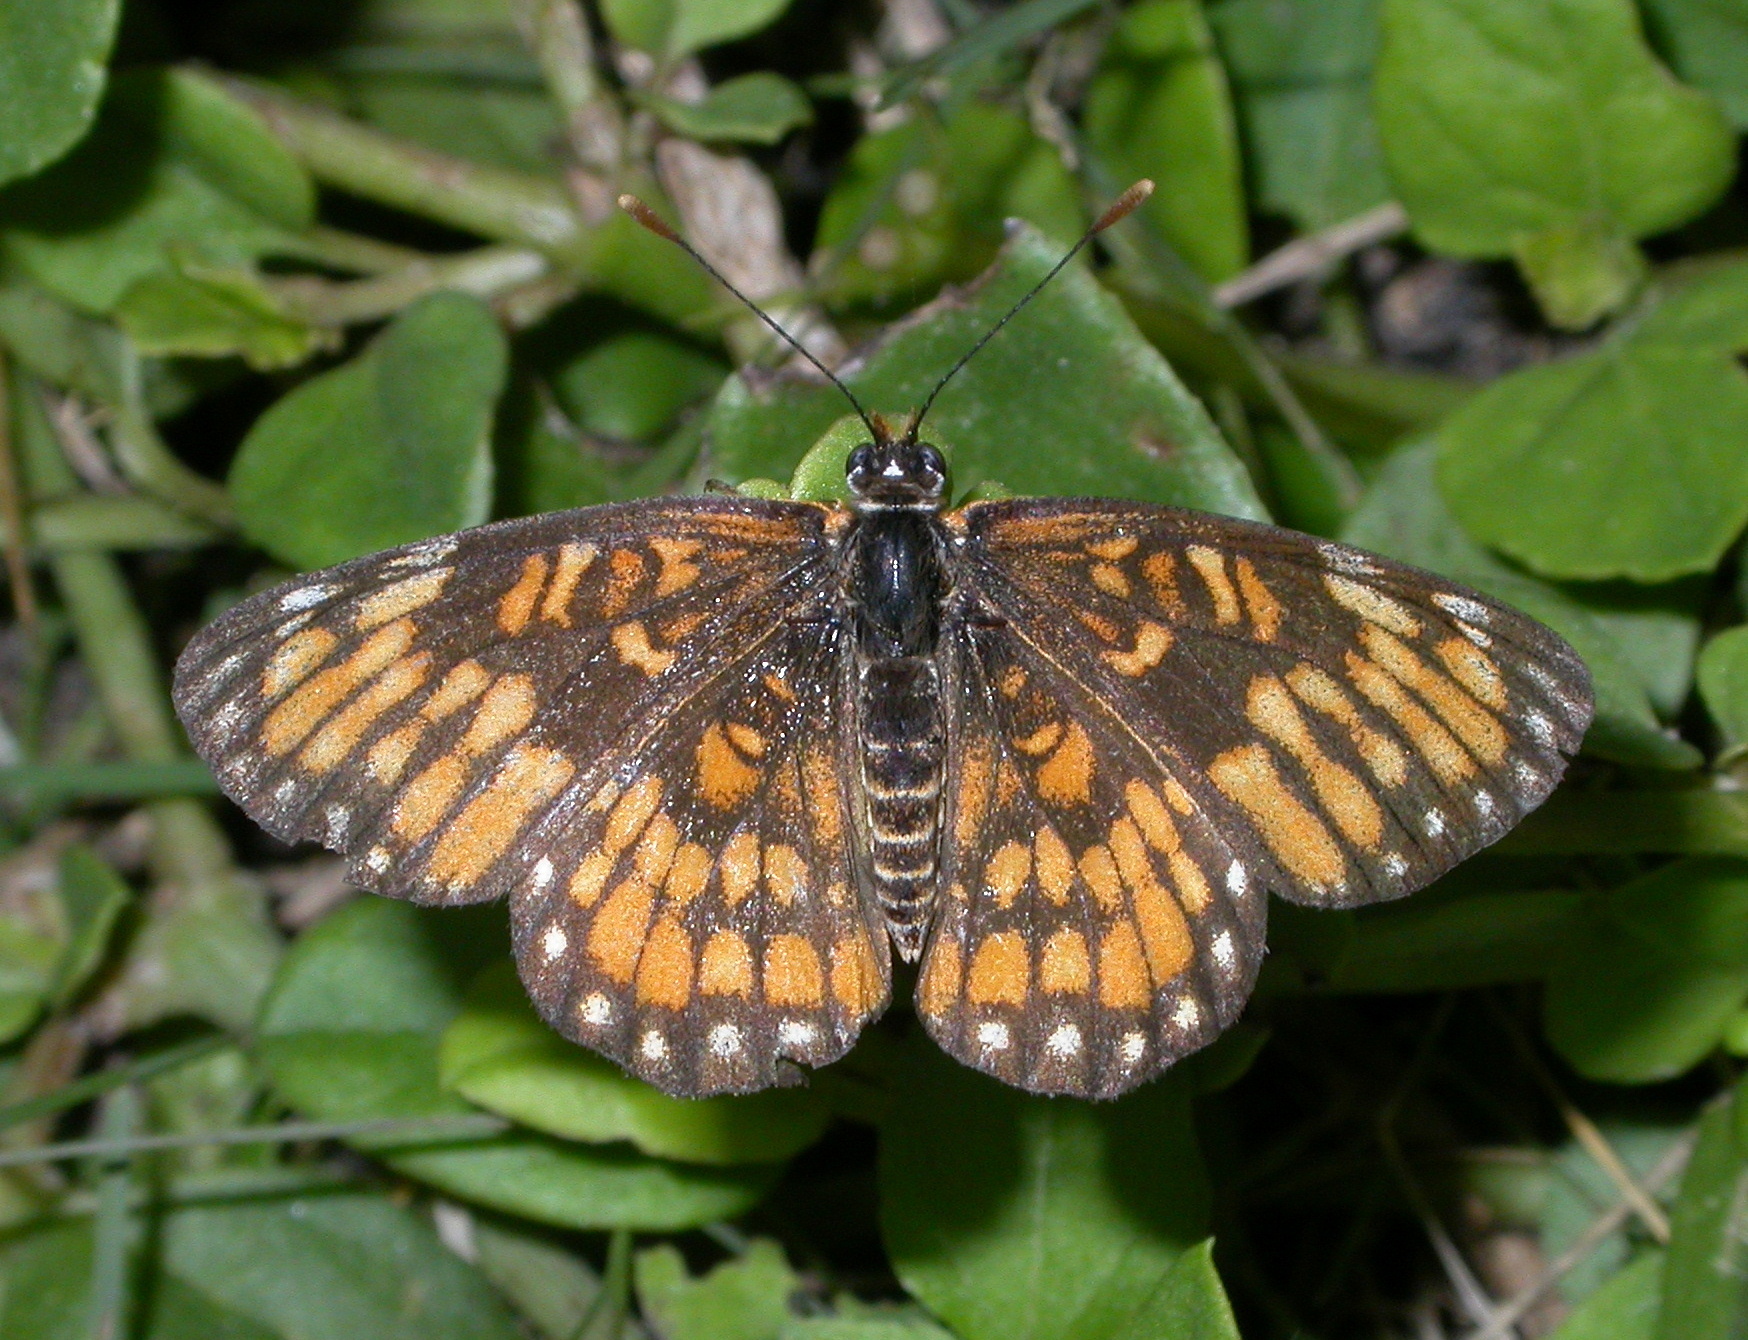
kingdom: Animalia
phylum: Arthropoda
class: Insecta
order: Lepidoptera
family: Nymphalidae
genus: Chlosyne
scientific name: Chlosyne definita
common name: Definite patch
